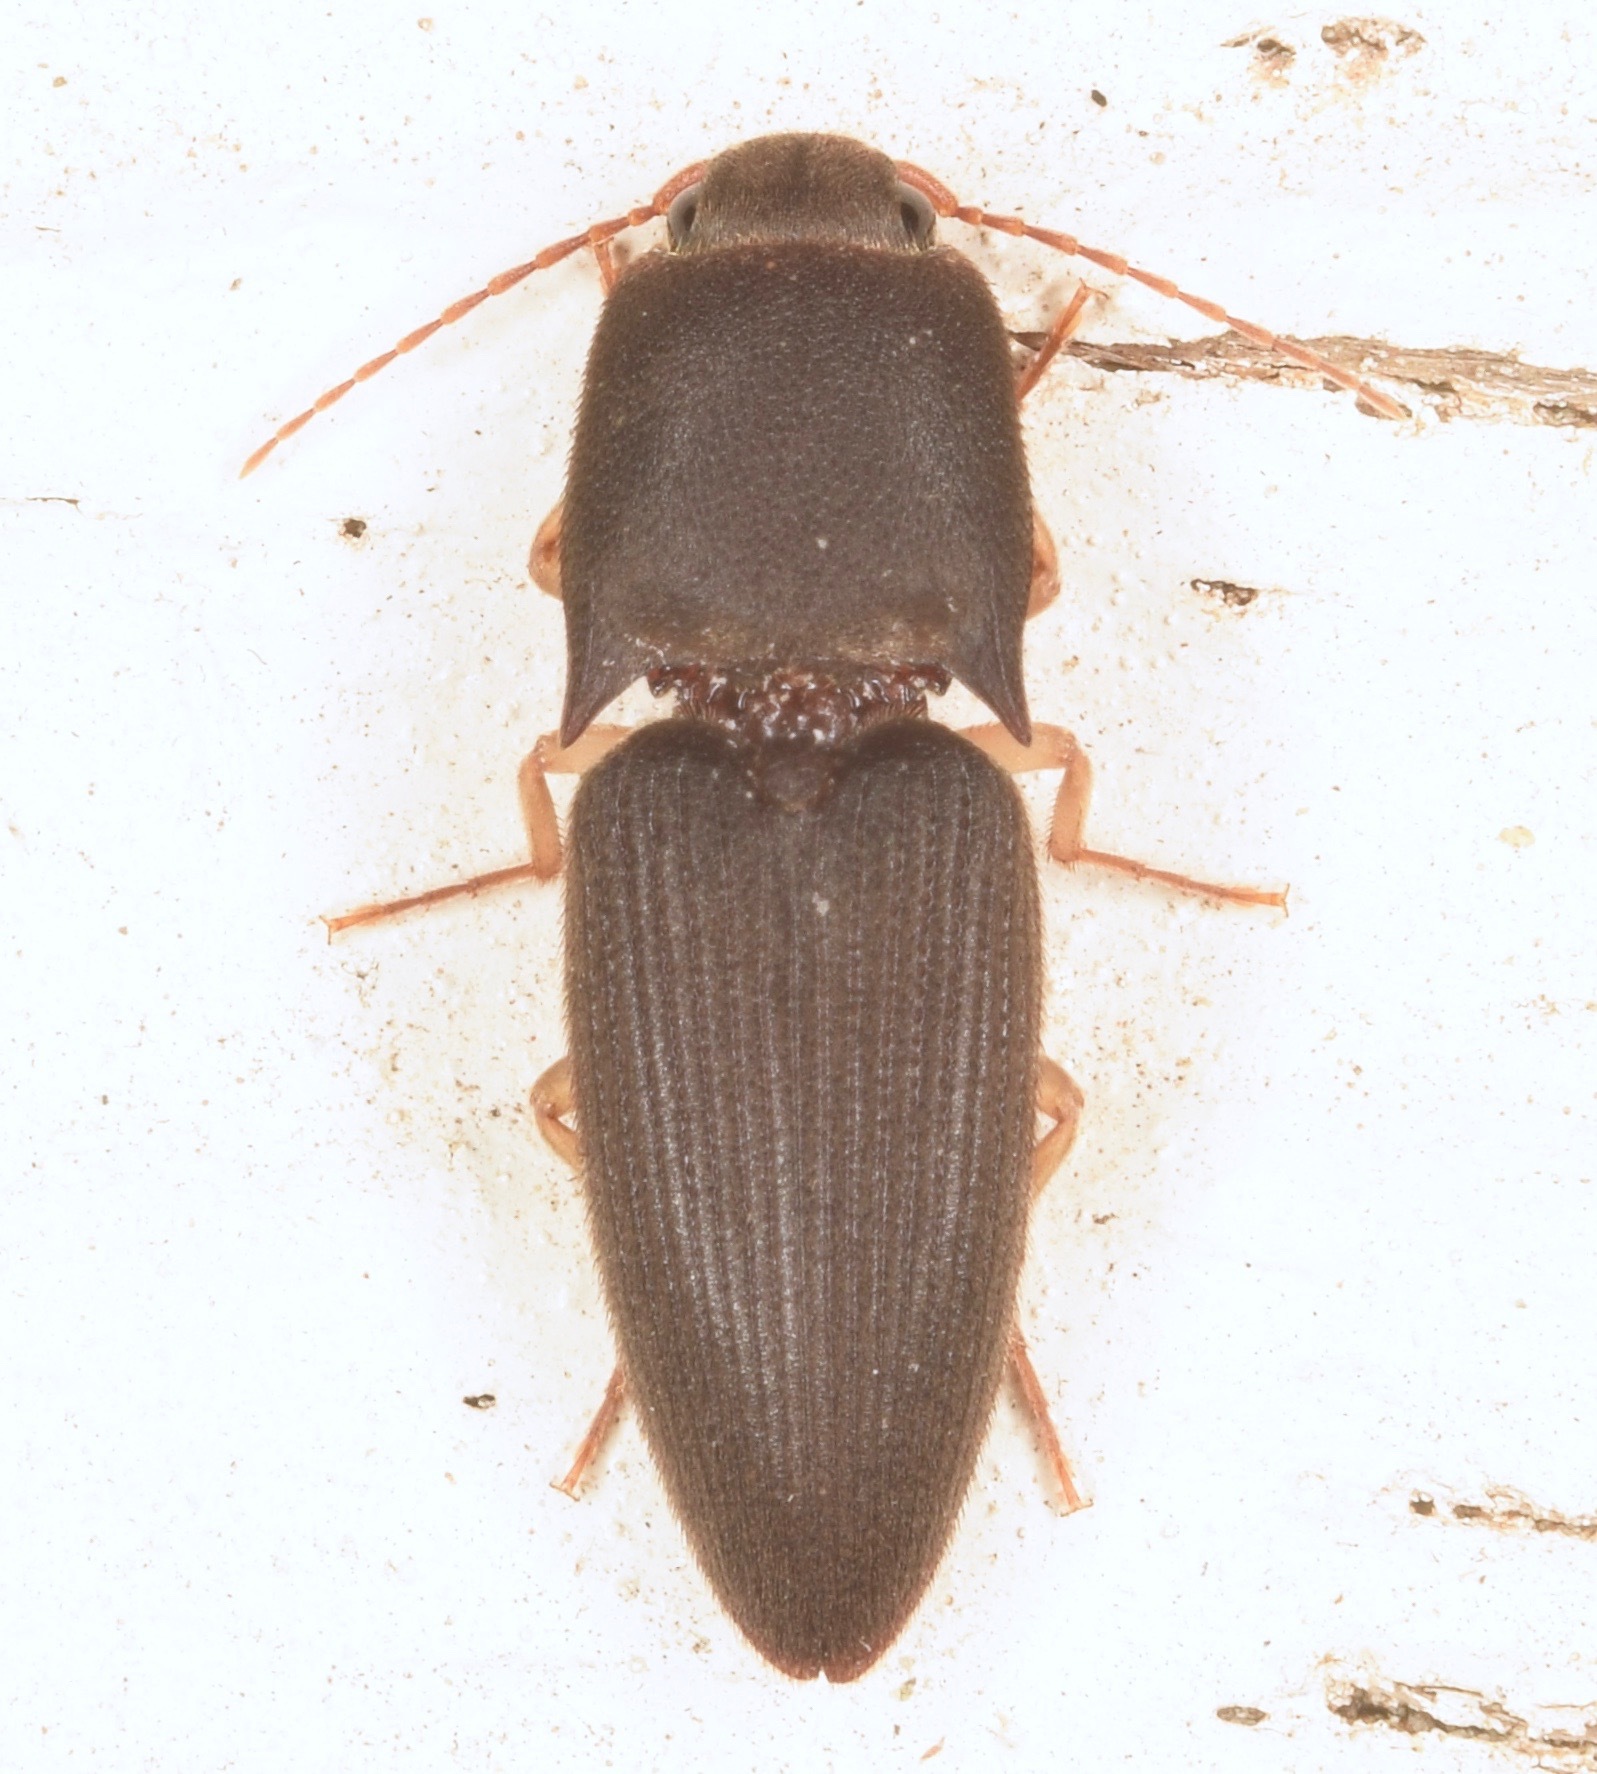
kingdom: Animalia
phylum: Arthropoda
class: Insecta
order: Coleoptera
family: Elateridae
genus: Heteroderes
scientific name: Heteroderes amplicollis
